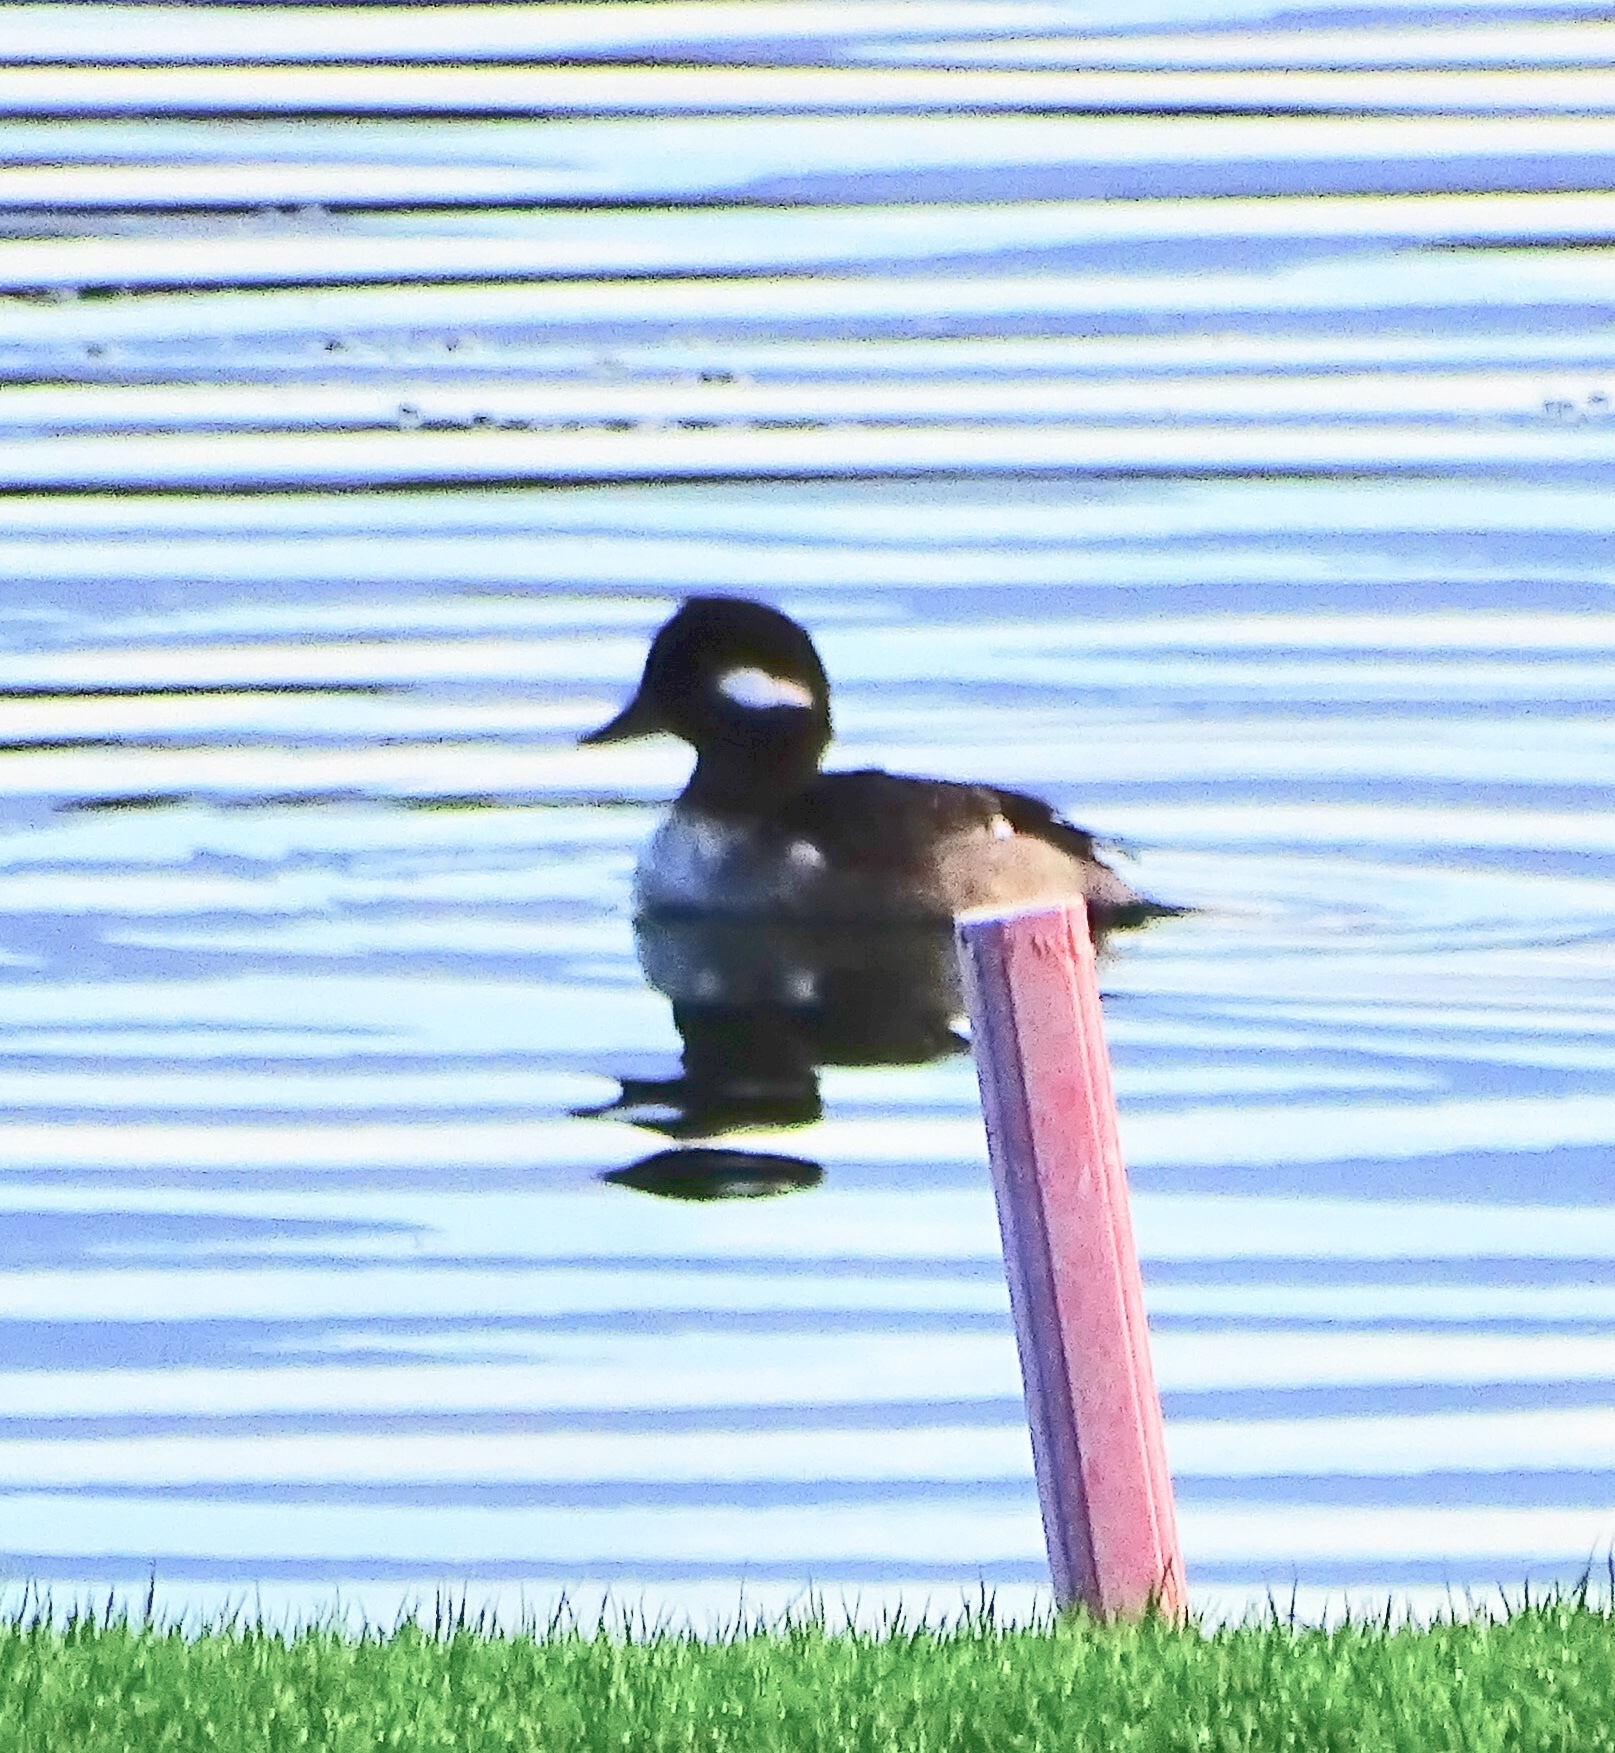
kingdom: Animalia
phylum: Chordata
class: Aves
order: Anseriformes
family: Anatidae
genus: Bucephala
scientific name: Bucephala albeola
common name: Bufflehead
